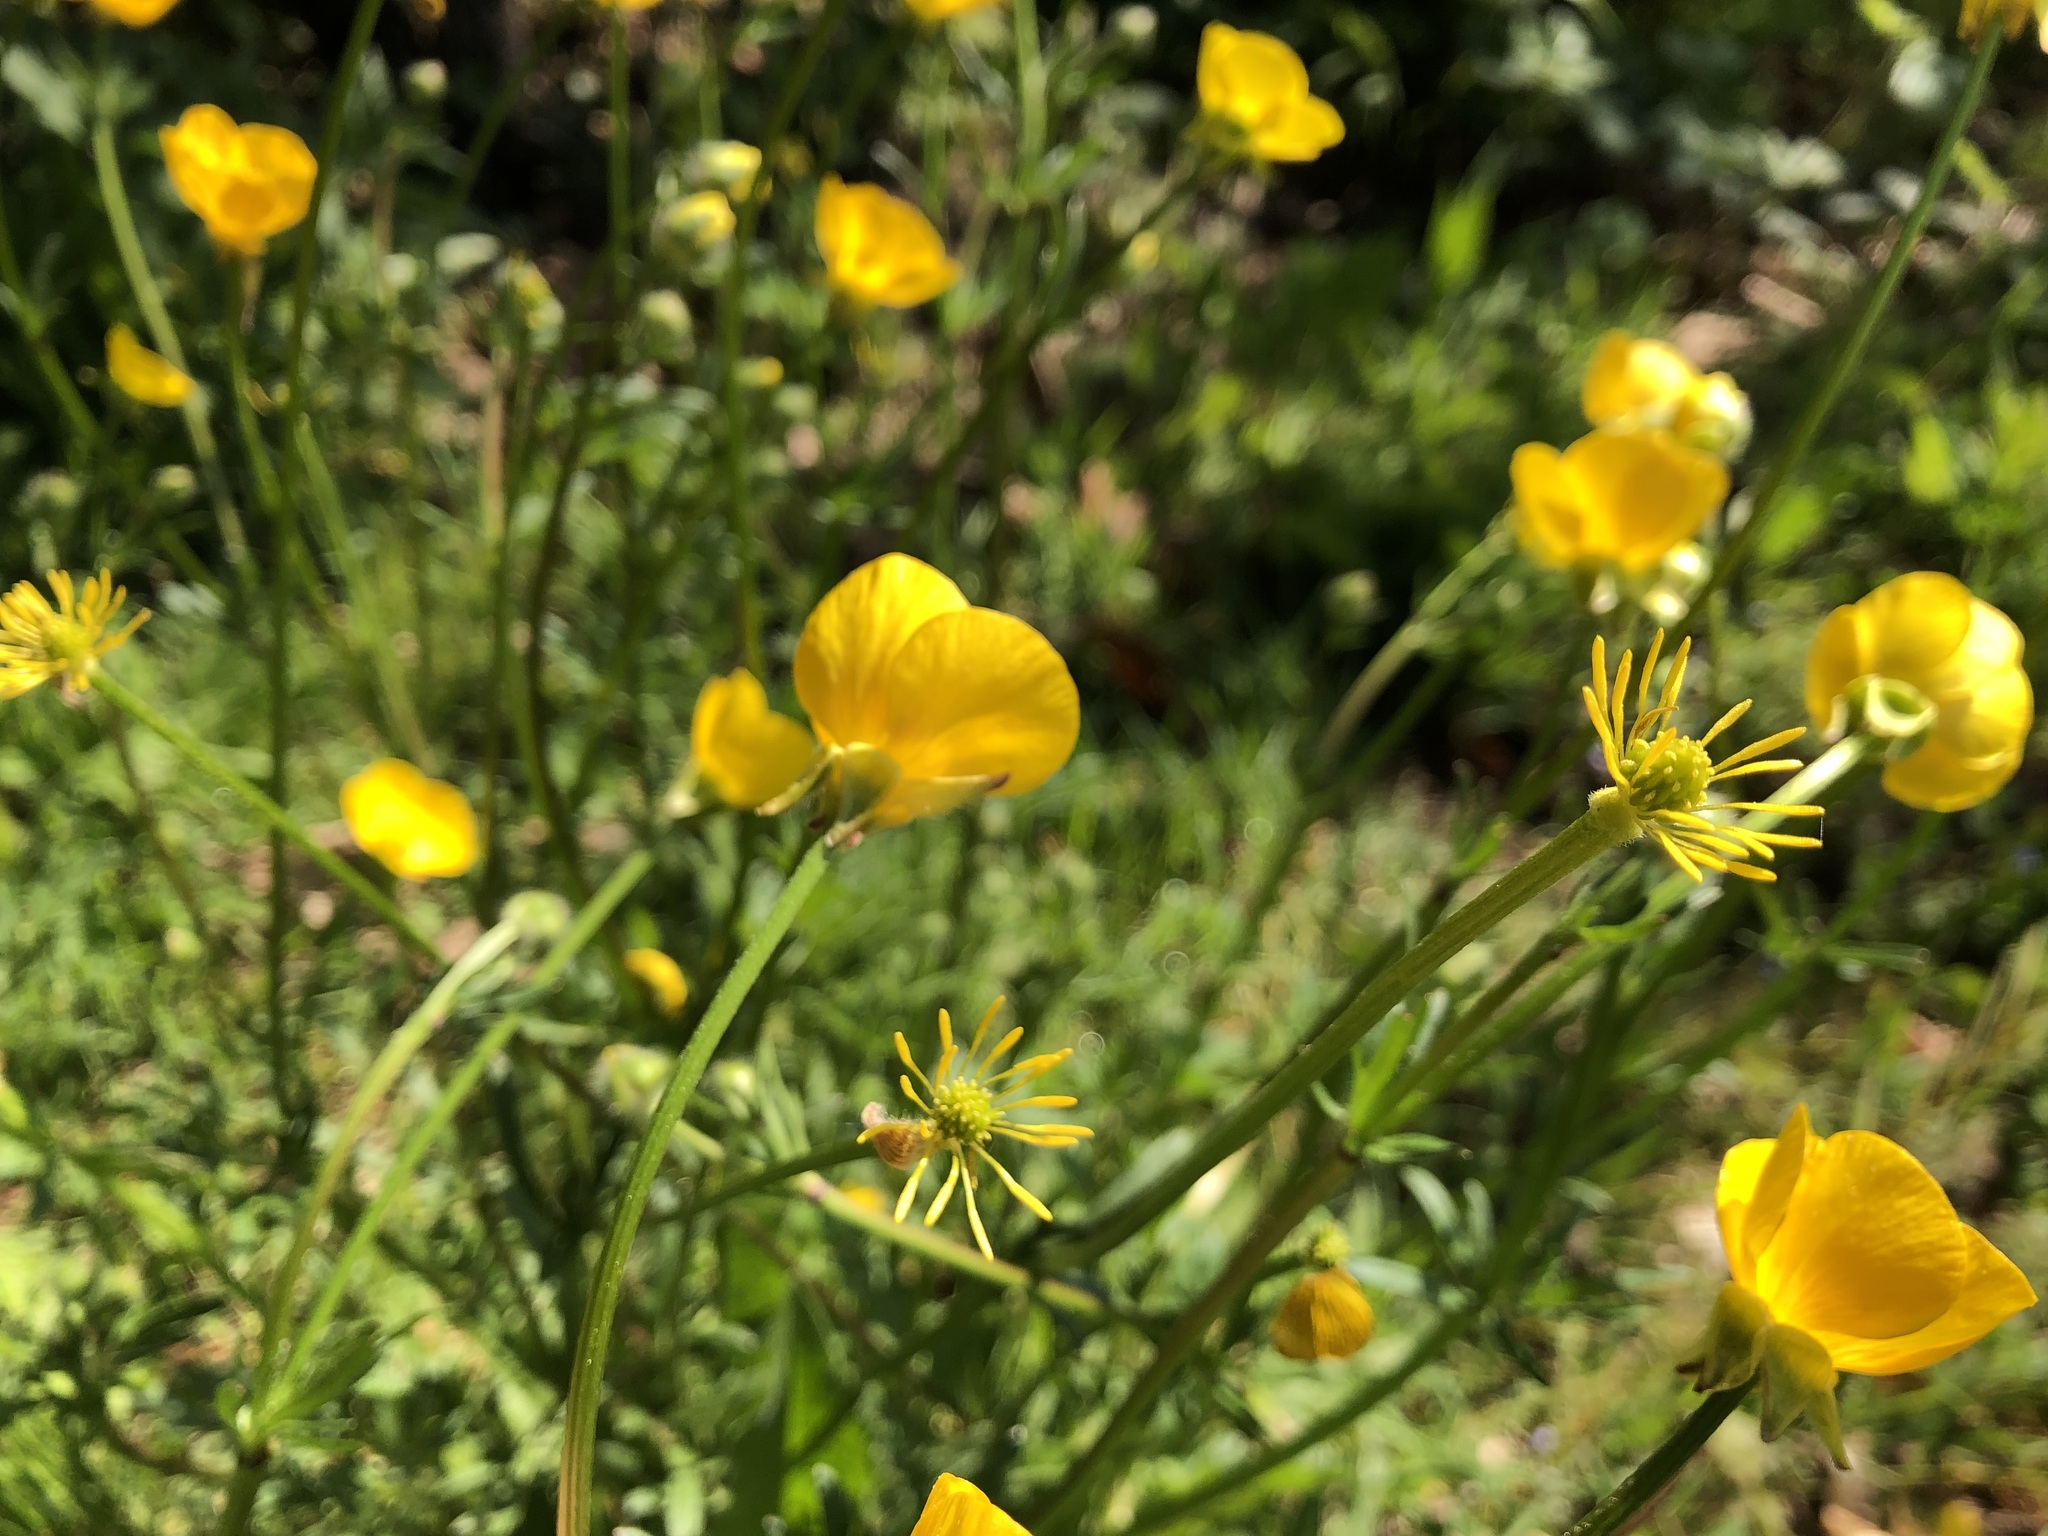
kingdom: Plantae
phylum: Tracheophyta
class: Magnoliopsida
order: Ranunculales
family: Ranunculaceae
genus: Ranunculus
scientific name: Ranunculus bulbosus
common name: Bulbous buttercup
